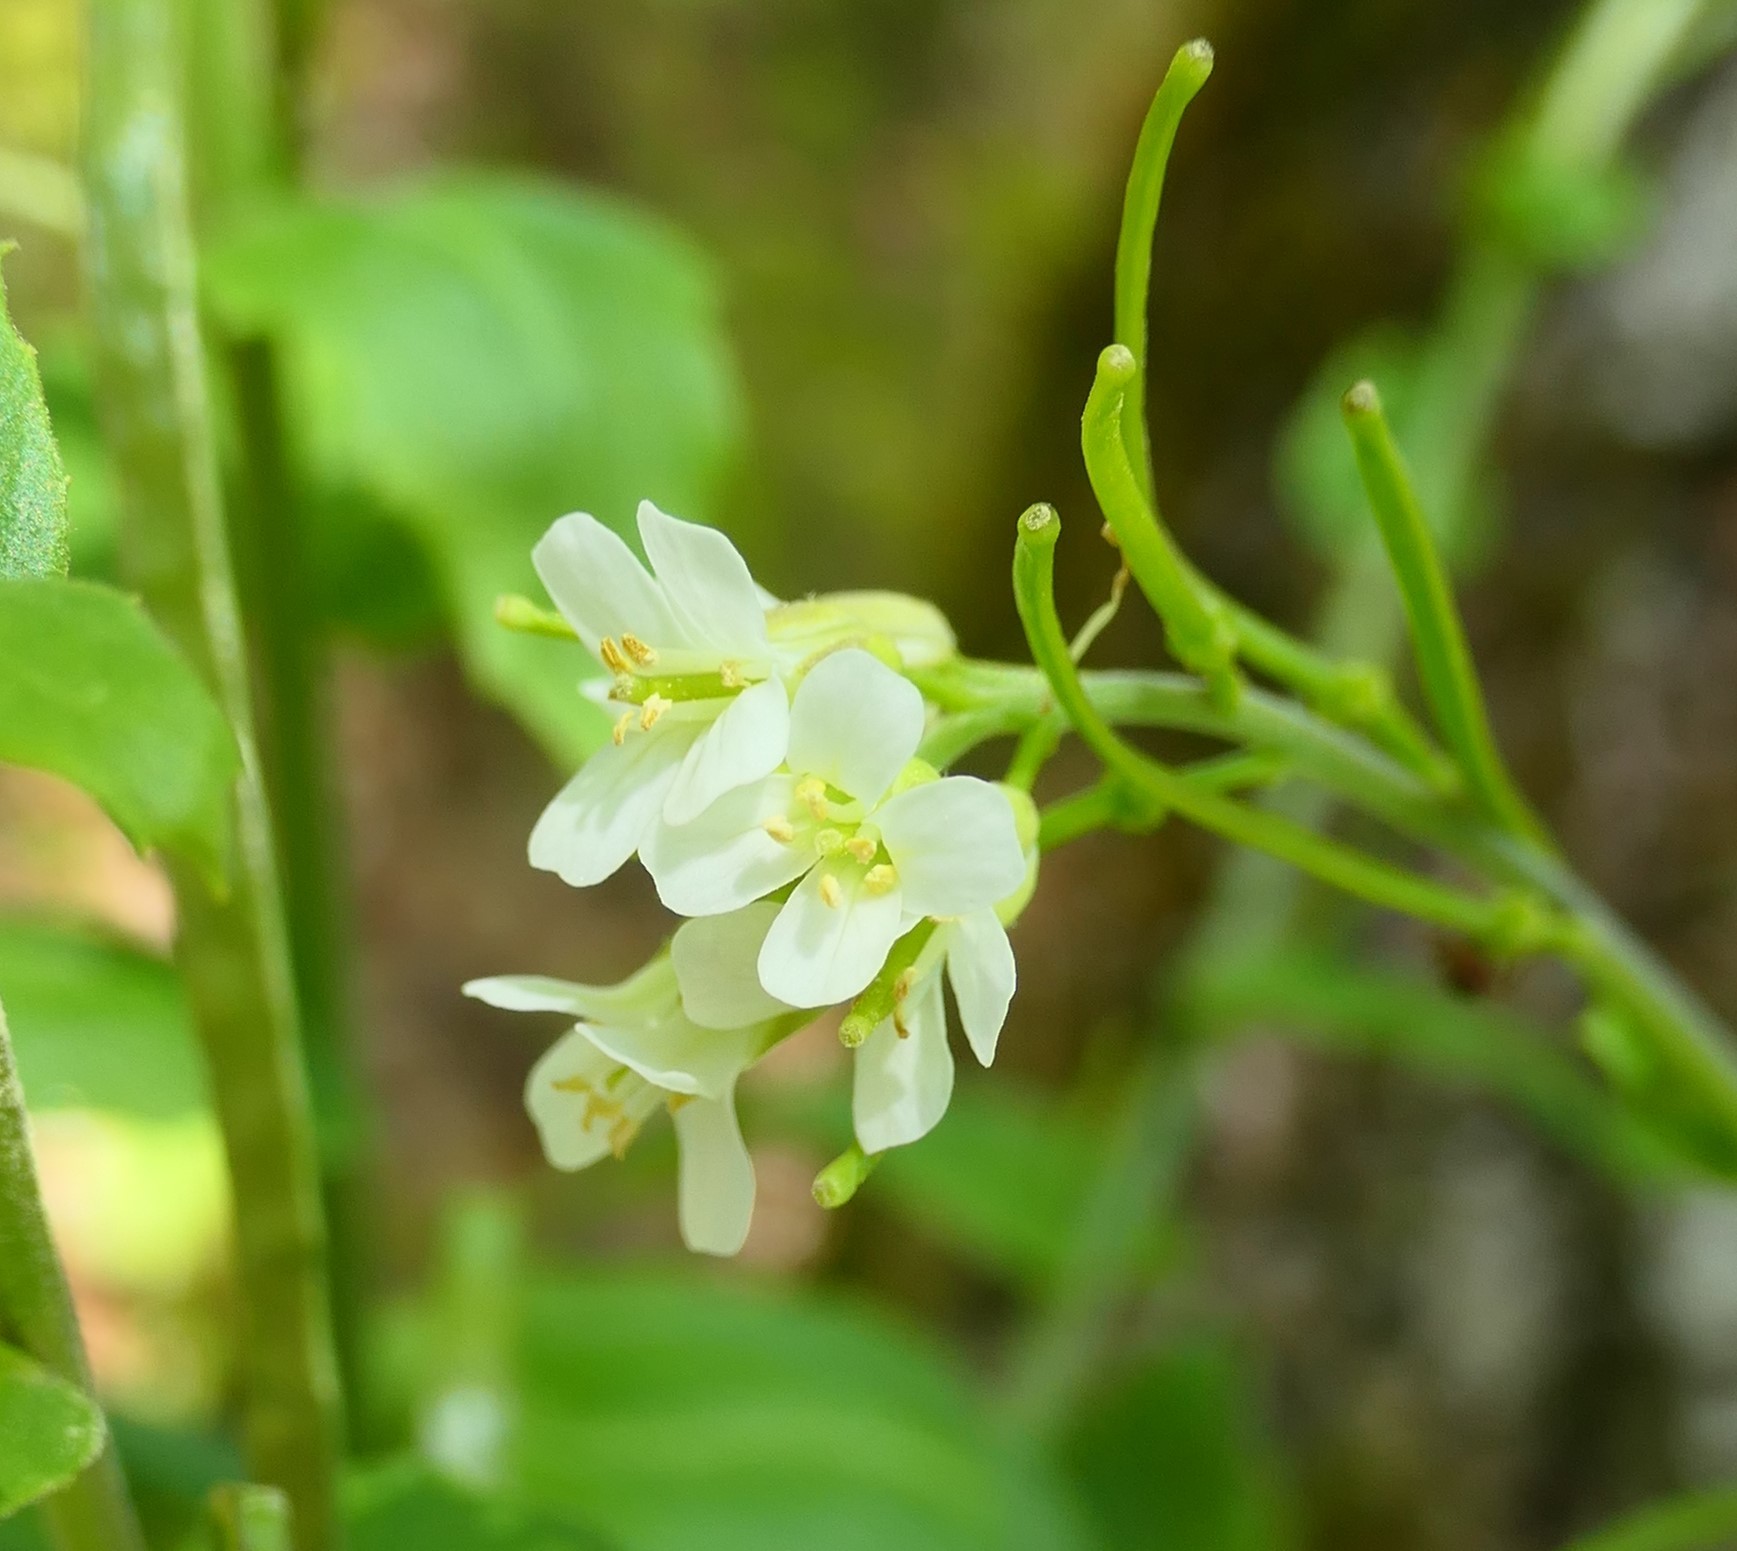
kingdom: Plantae
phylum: Tracheophyta
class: Magnoliopsida
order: Brassicales
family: Brassicaceae
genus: Pseudoturritis
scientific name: Pseudoturritis turrita
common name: Tower cress
